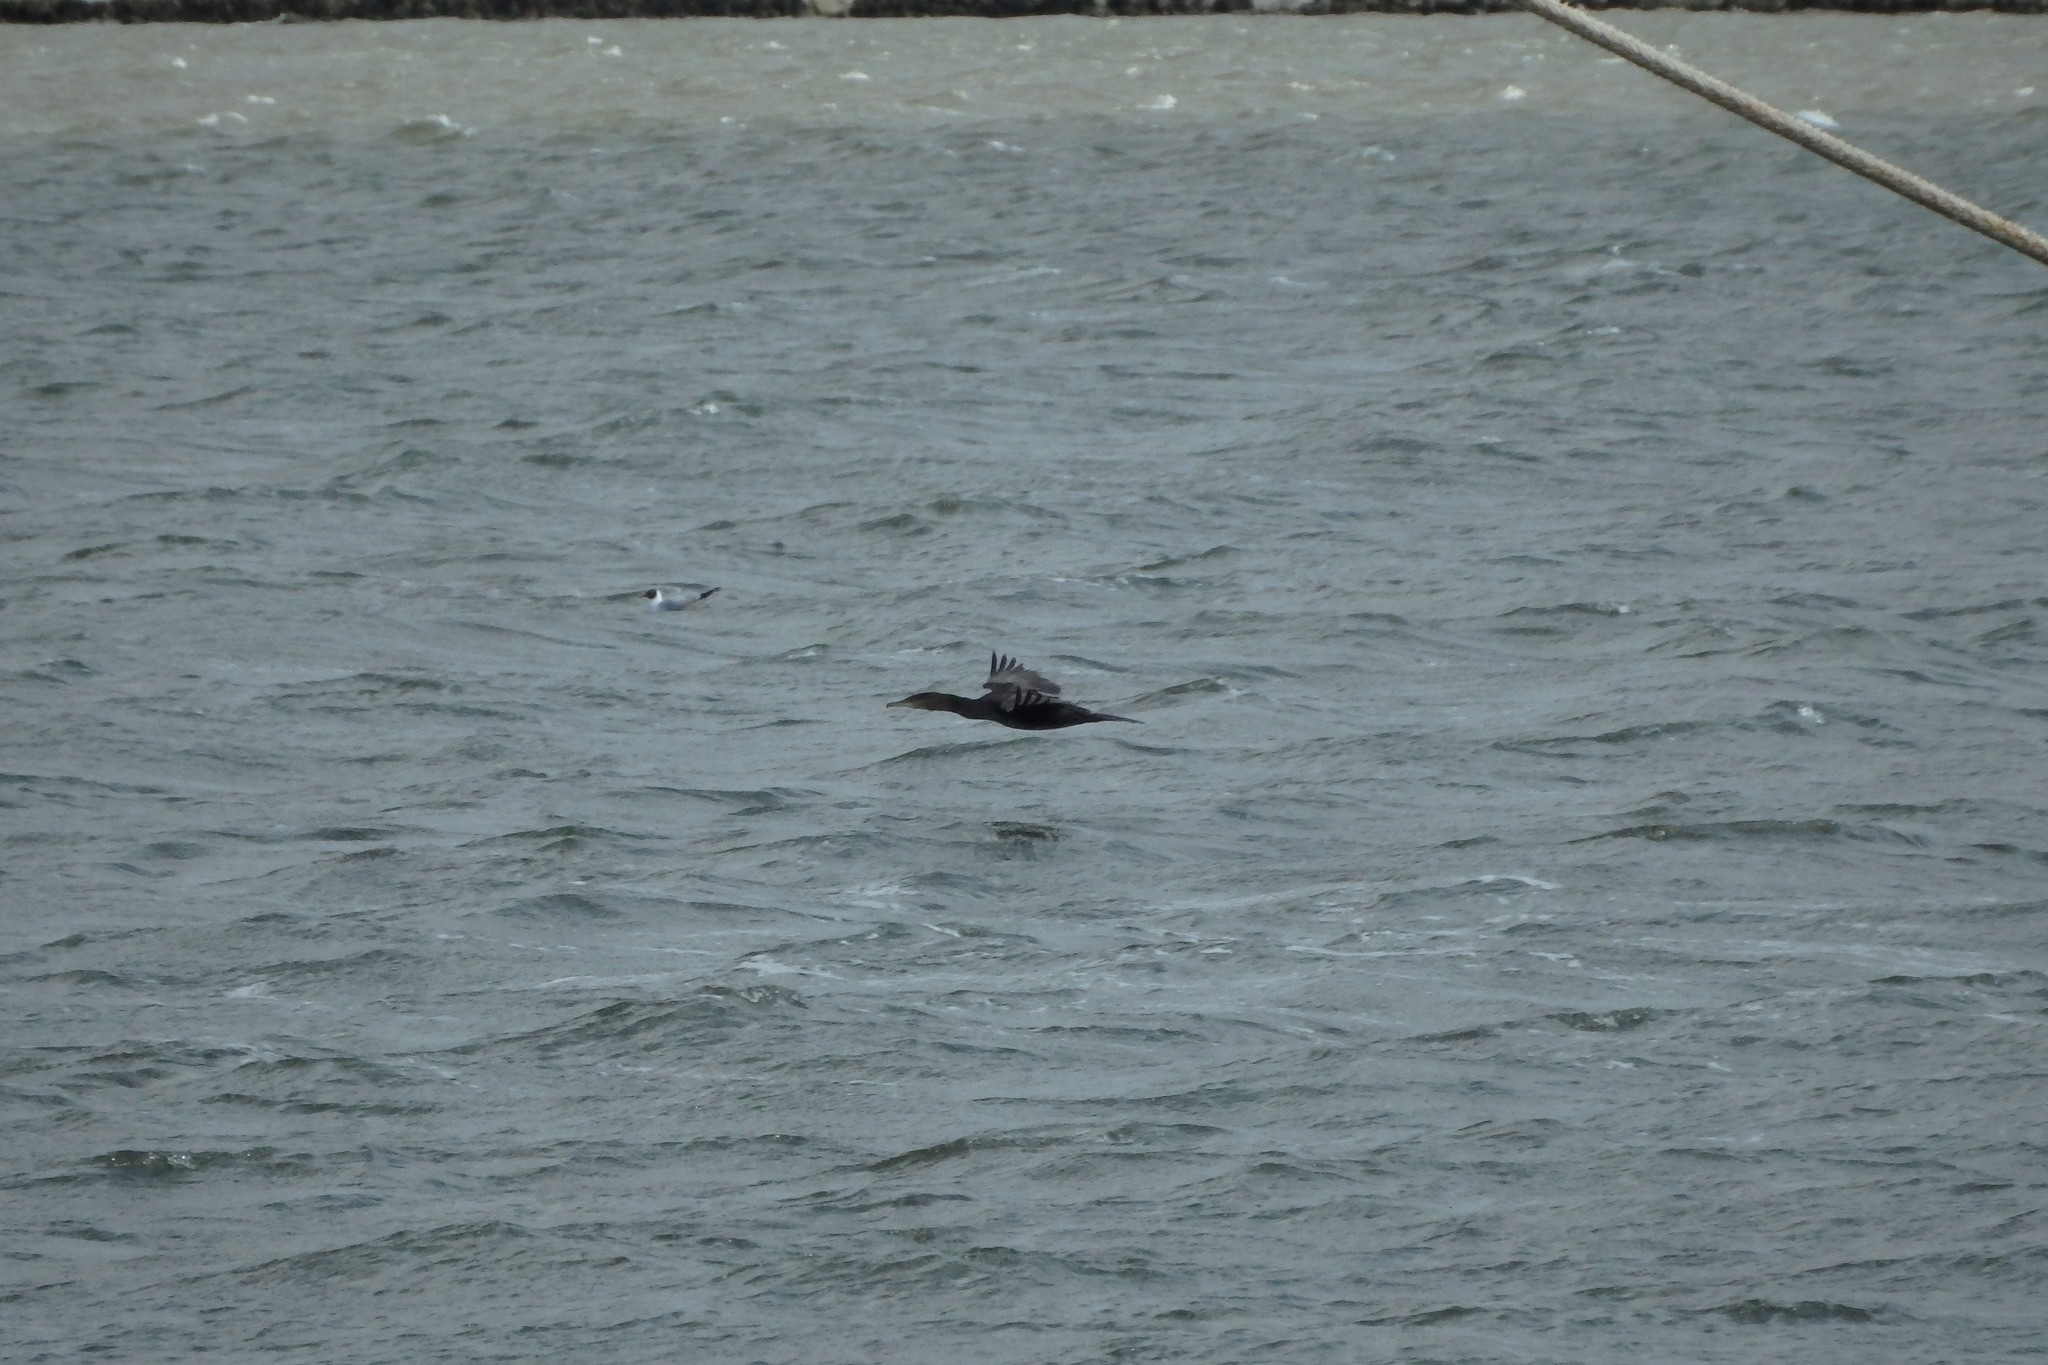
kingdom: Animalia
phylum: Chordata
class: Aves
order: Suliformes
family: Phalacrocoracidae
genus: Phalacrocorax
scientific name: Phalacrocorax carbo
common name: Great cormorant
